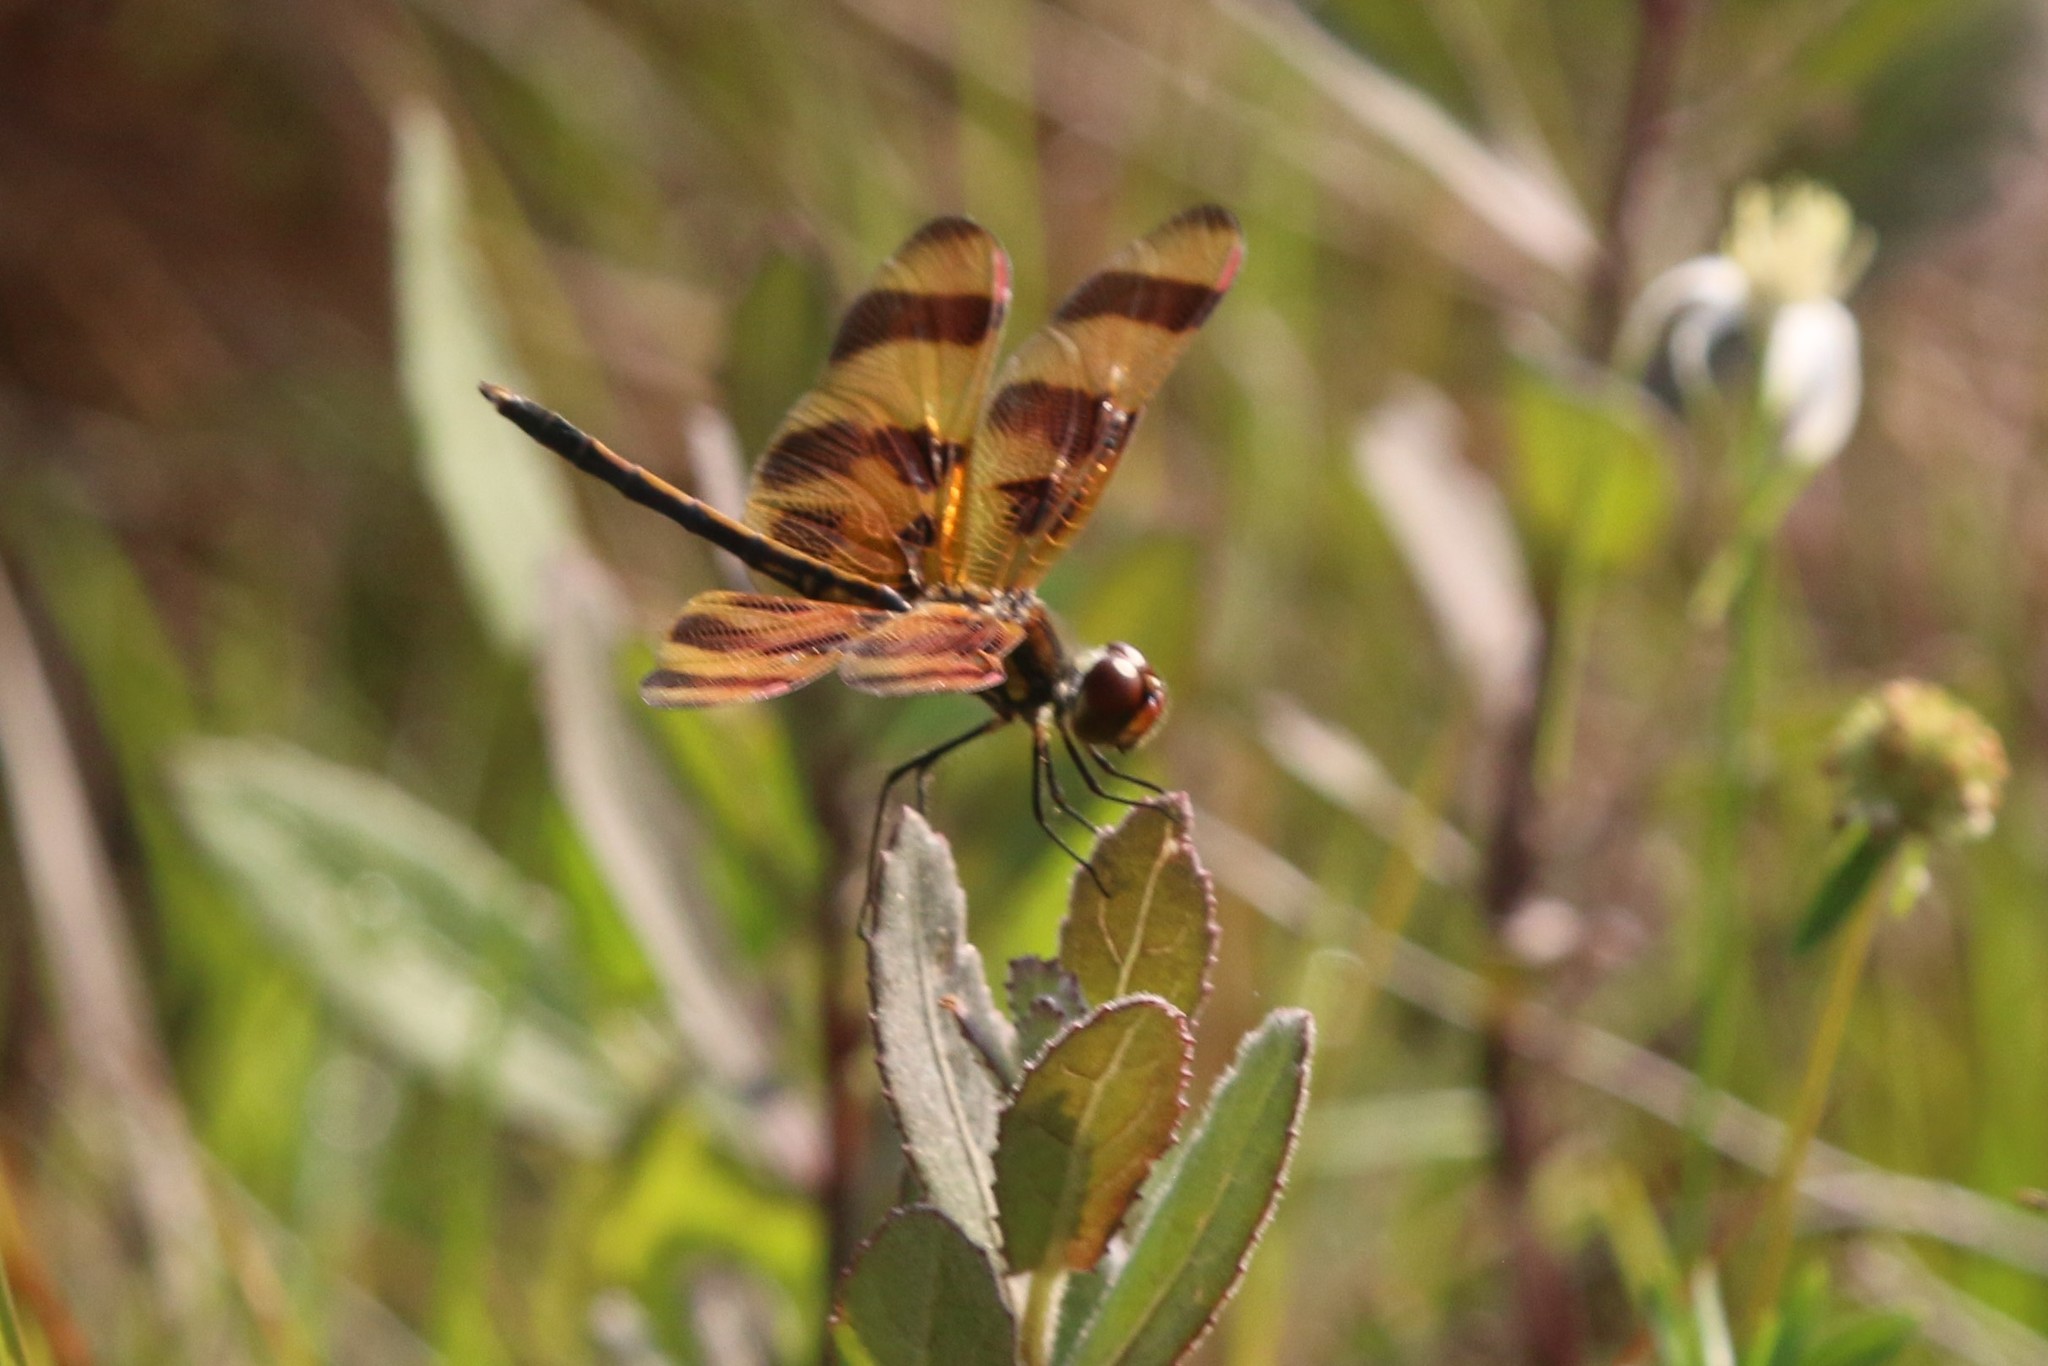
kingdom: Animalia
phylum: Arthropoda
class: Insecta
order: Odonata
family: Libellulidae
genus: Celithemis
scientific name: Celithemis eponina
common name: Halloween pennant
